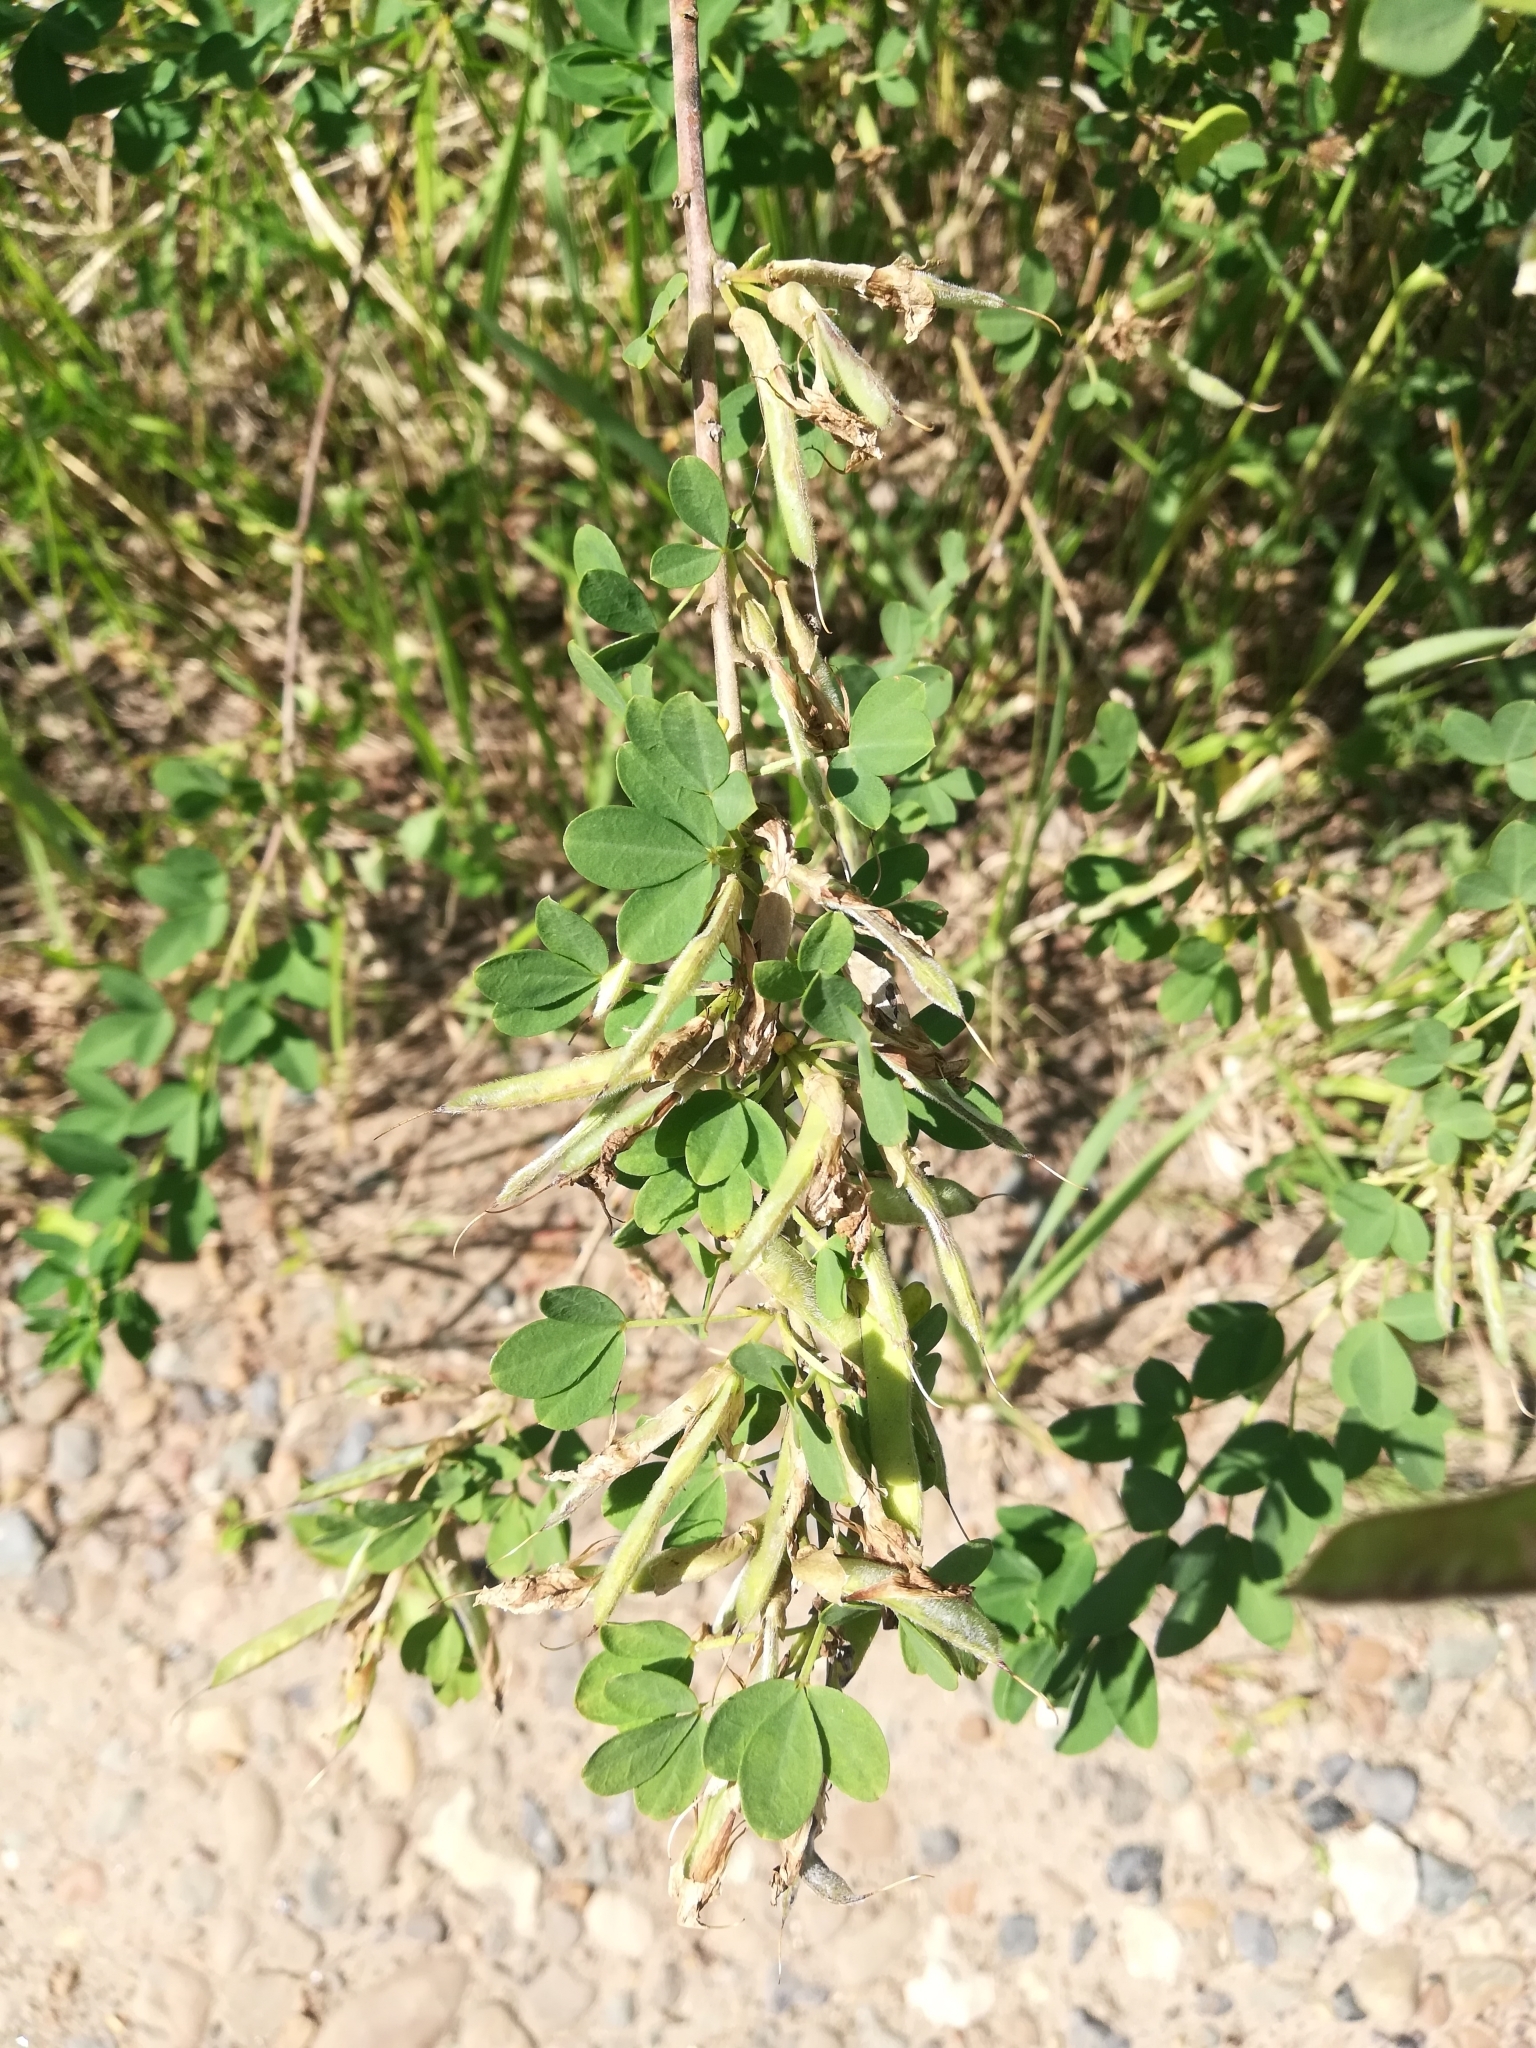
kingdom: Plantae
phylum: Tracheophyta
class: Magnoliopsida
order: Fabales
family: Fabaceae
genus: Chamaecytisus
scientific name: Chamaecytisus ruthenicus
